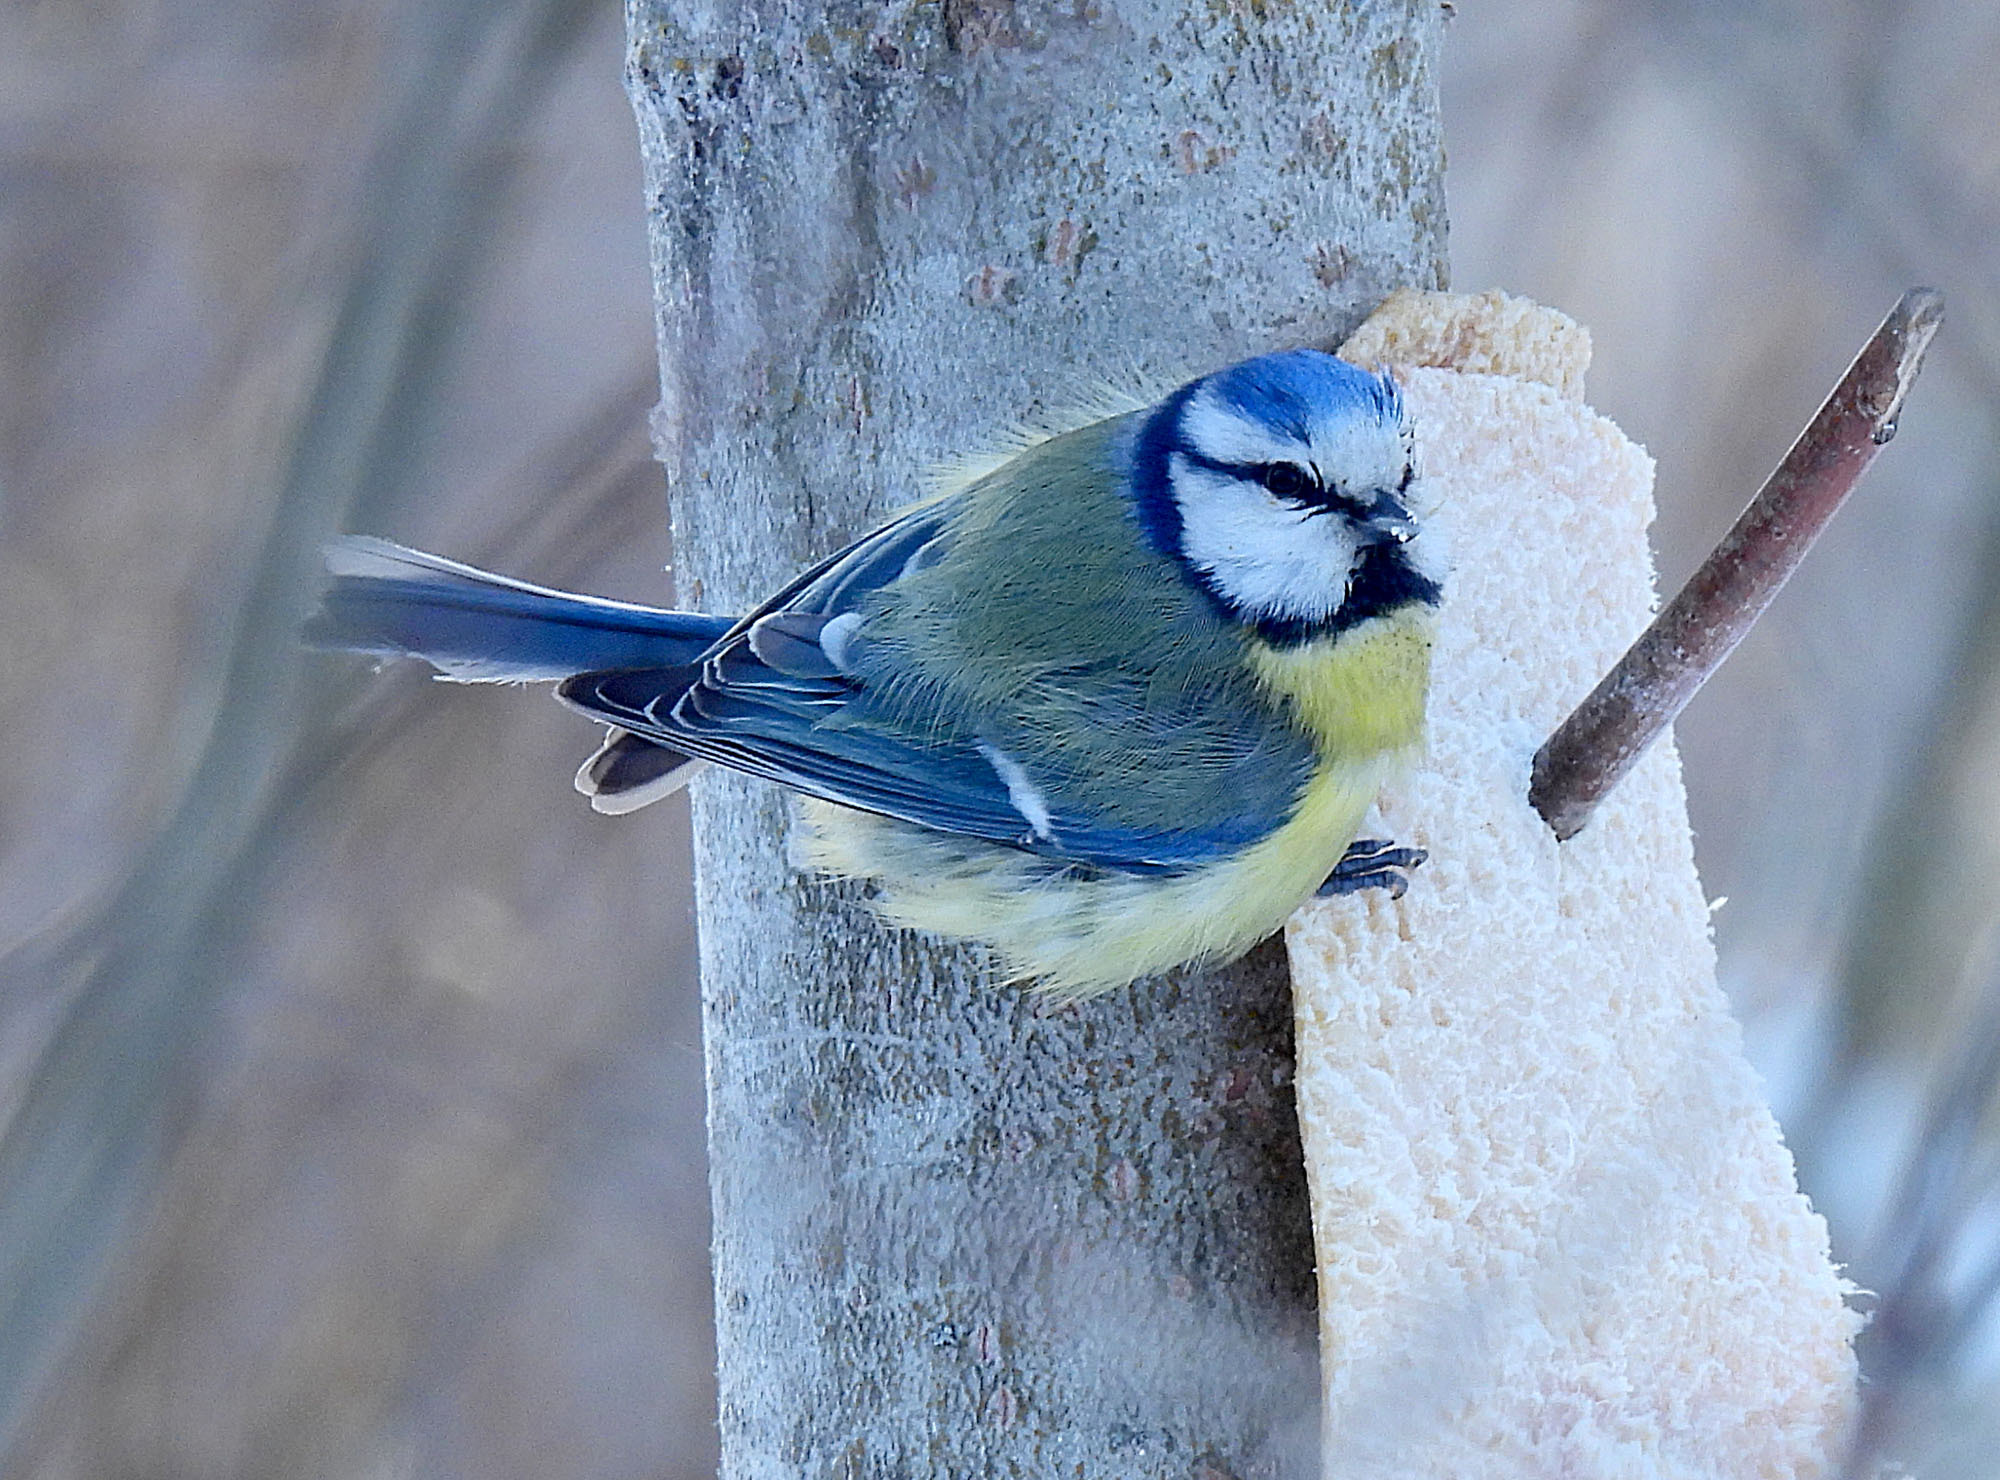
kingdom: Animalia
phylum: Chordata
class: Aves
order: Passeriformes
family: Paridae
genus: Cyanistes
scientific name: Cyanistes caeruleus
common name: Eurasian blue tit
